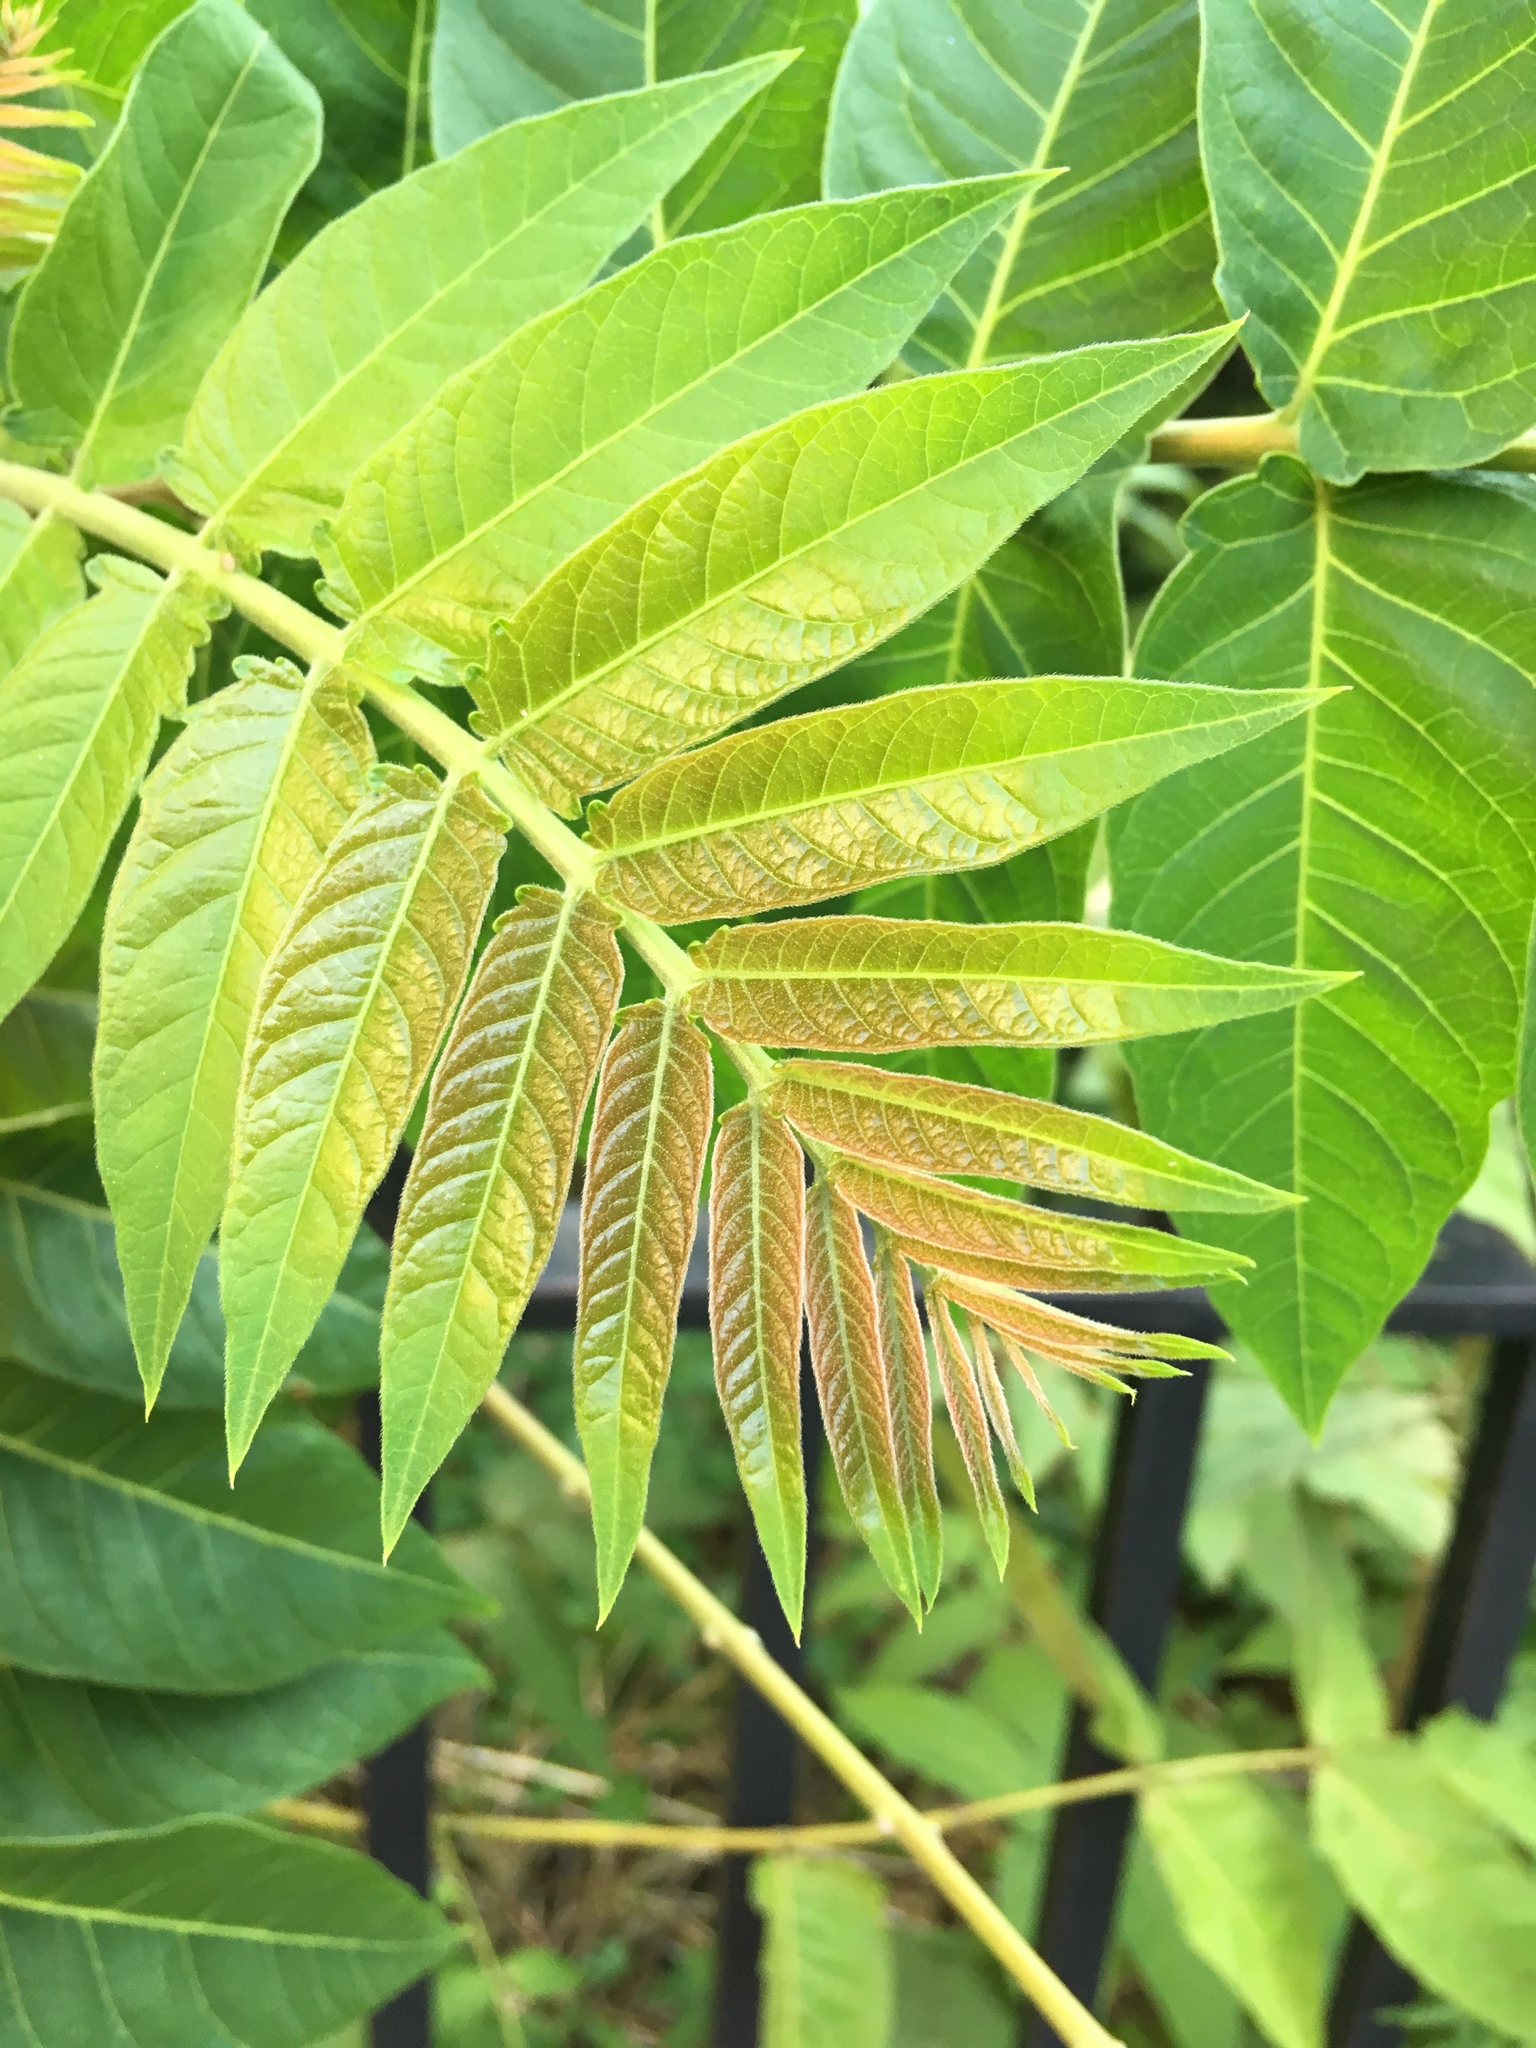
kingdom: Plantae
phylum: Tracheophyta
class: Magnoliopsida
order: Sapindales
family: Simaroubaceae
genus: Ailanthus
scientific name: Ailanthus altissima
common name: Tree-of-heaven
